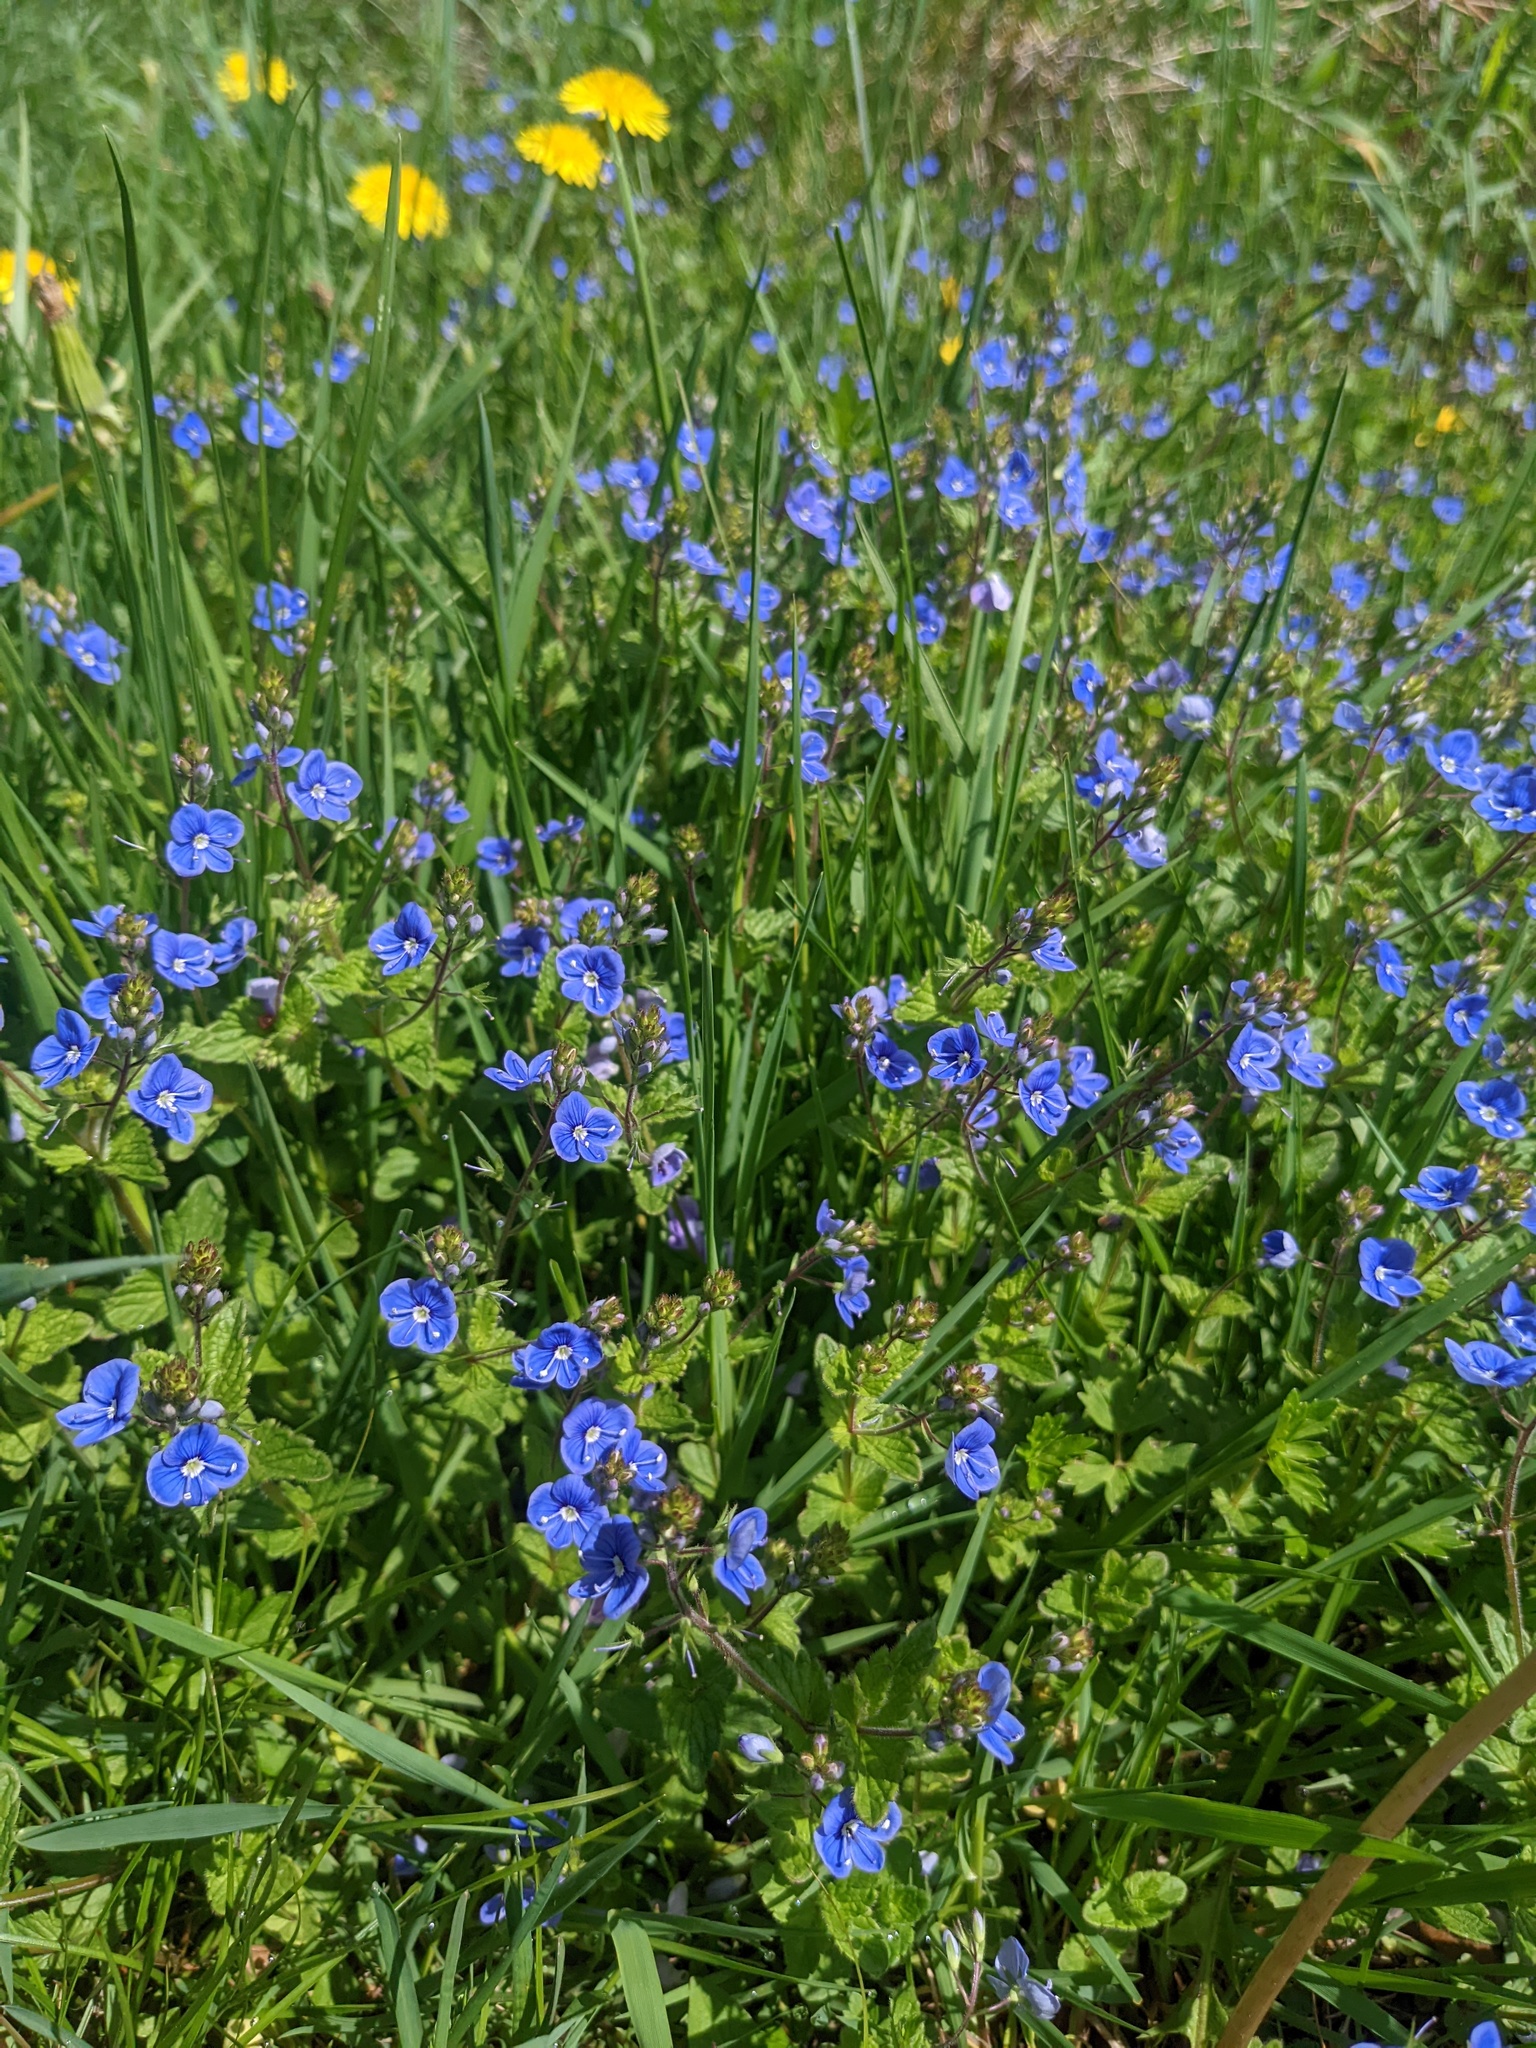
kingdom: Plantae
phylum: Tracheophyta
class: Magnoliopsida
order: Lamiales
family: Plantaginaceae
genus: Veronica
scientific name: Veronica chamaedrys
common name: Germander speedwell
